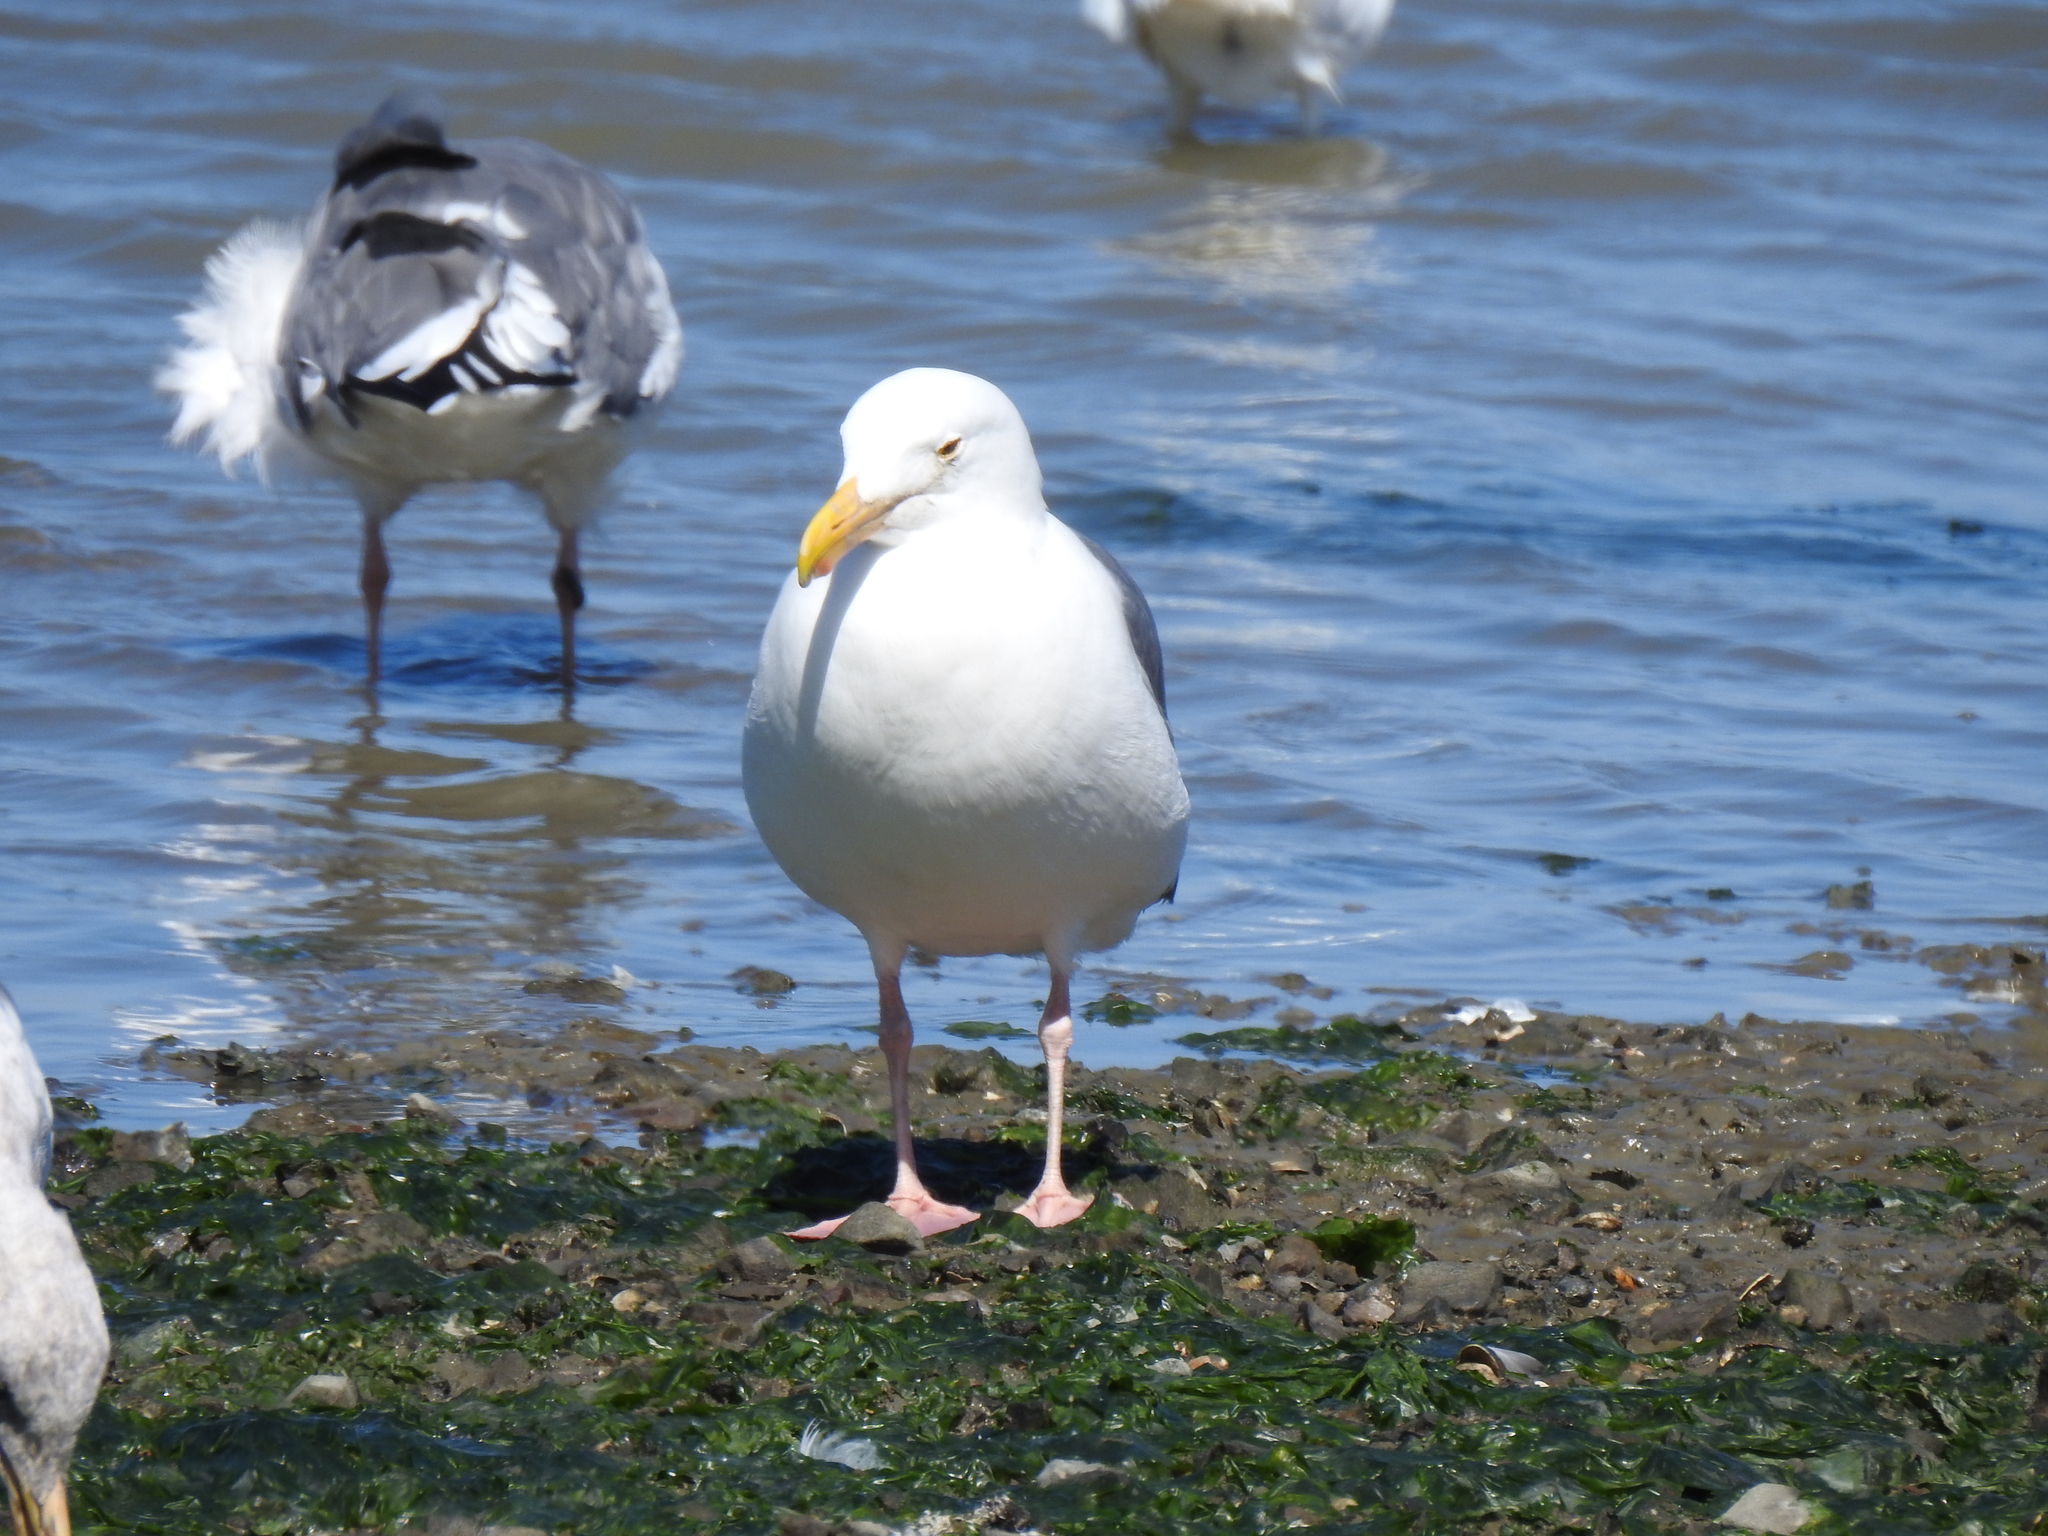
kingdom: Animalia
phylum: Chordata
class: Aves
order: Charadriiformes
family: Laridae
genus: Larus
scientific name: Larus occidentalis
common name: Western gull
